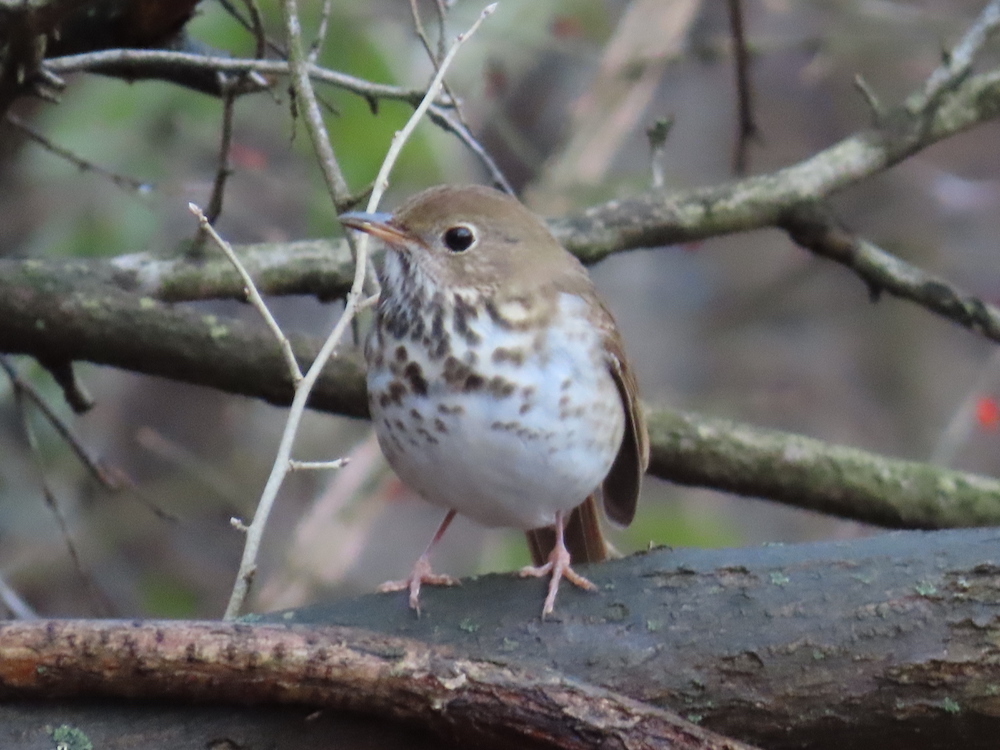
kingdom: Animalia
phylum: Chordata
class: Aves
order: Passeriformes
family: Turdidae
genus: Catharus
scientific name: Catharus guttatus
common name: Hermit thrush
